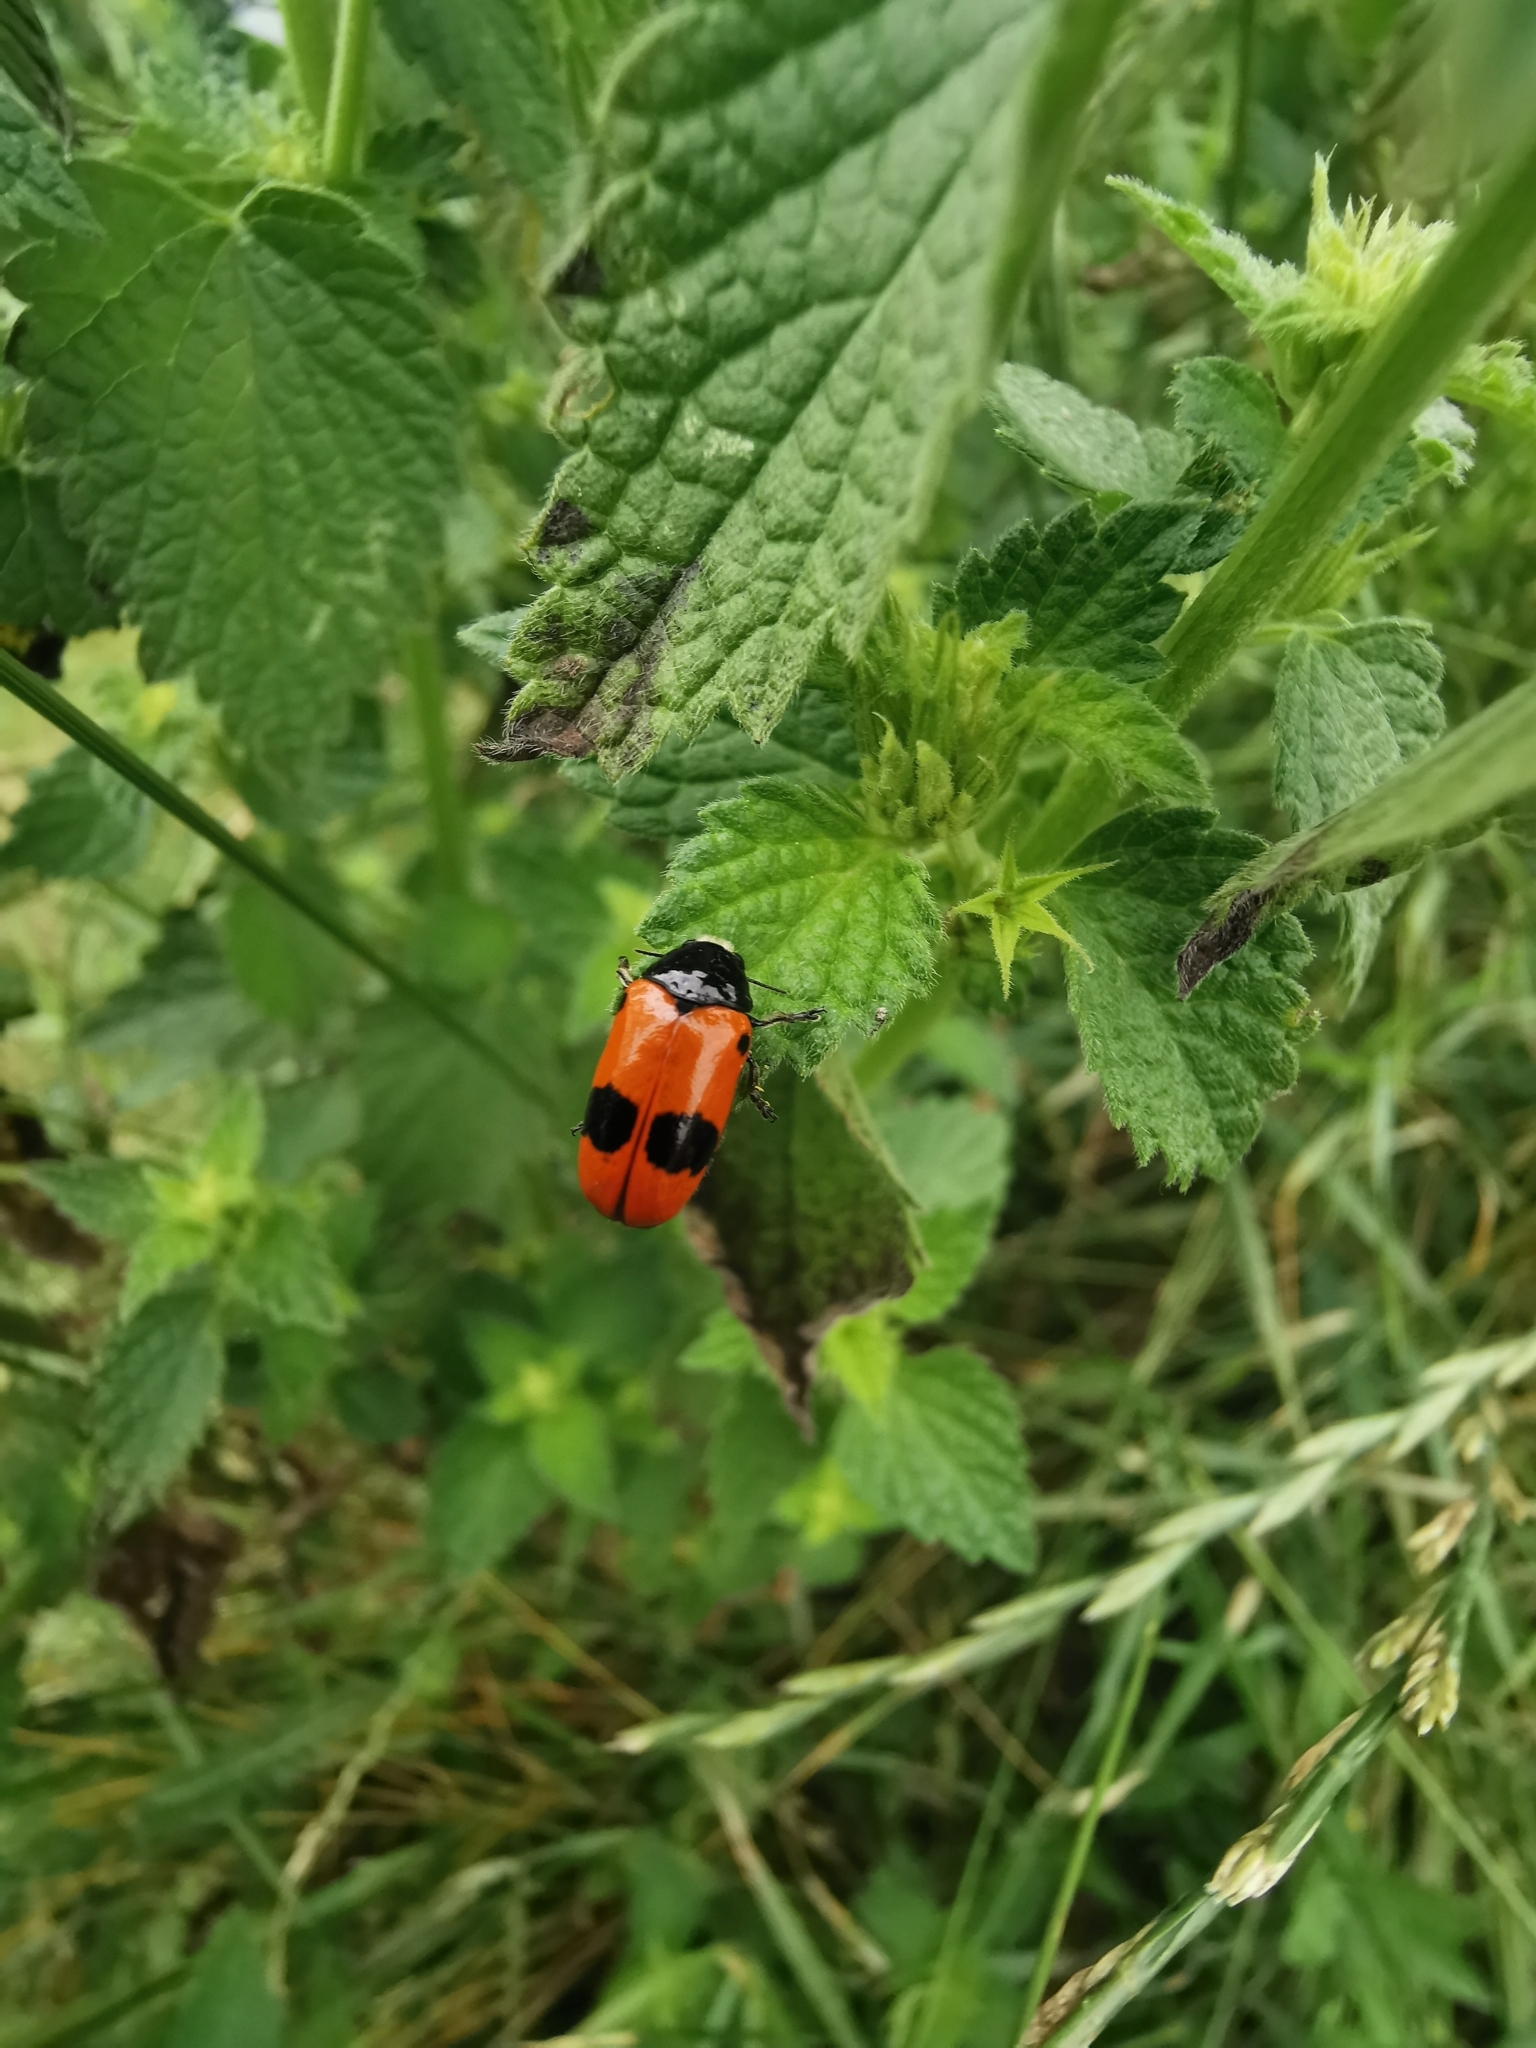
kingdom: Animalia
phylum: Arthropoda
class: Insecta
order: Coleoptera
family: Chrysomelidae
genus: Clytra
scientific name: Clytra laeviuscula
